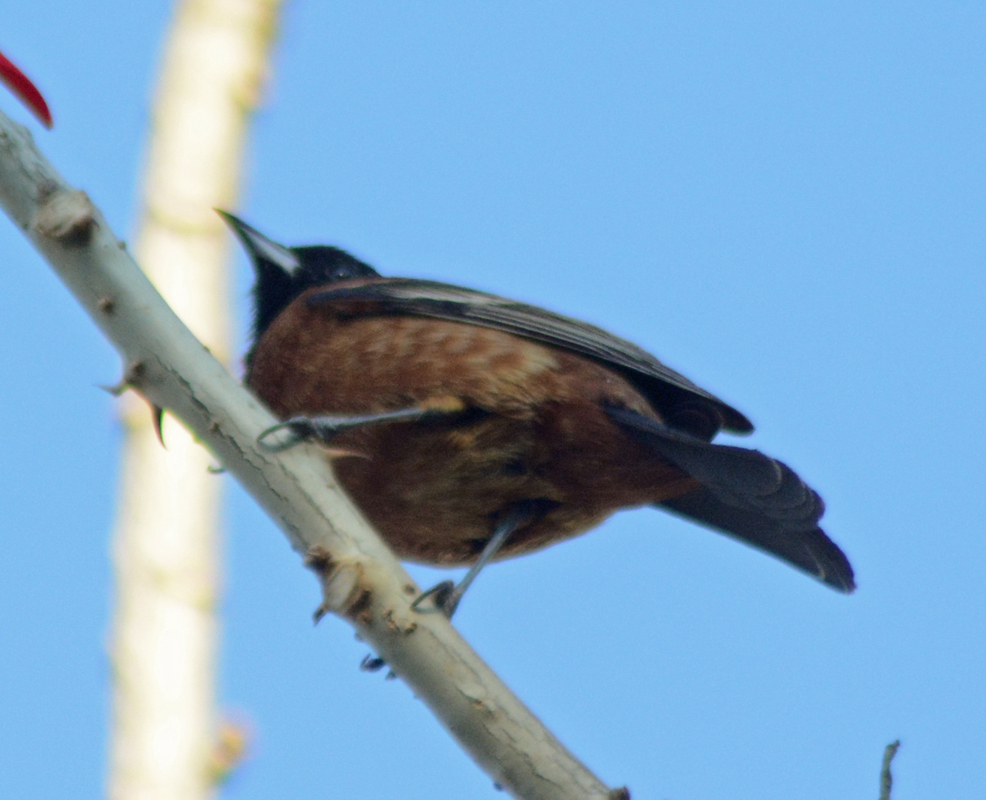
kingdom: Animalia
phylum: Chordata
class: Aves
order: Passeriformes
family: Icteridae
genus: Icterus
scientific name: Icterus spurius
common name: Orchard oriole
